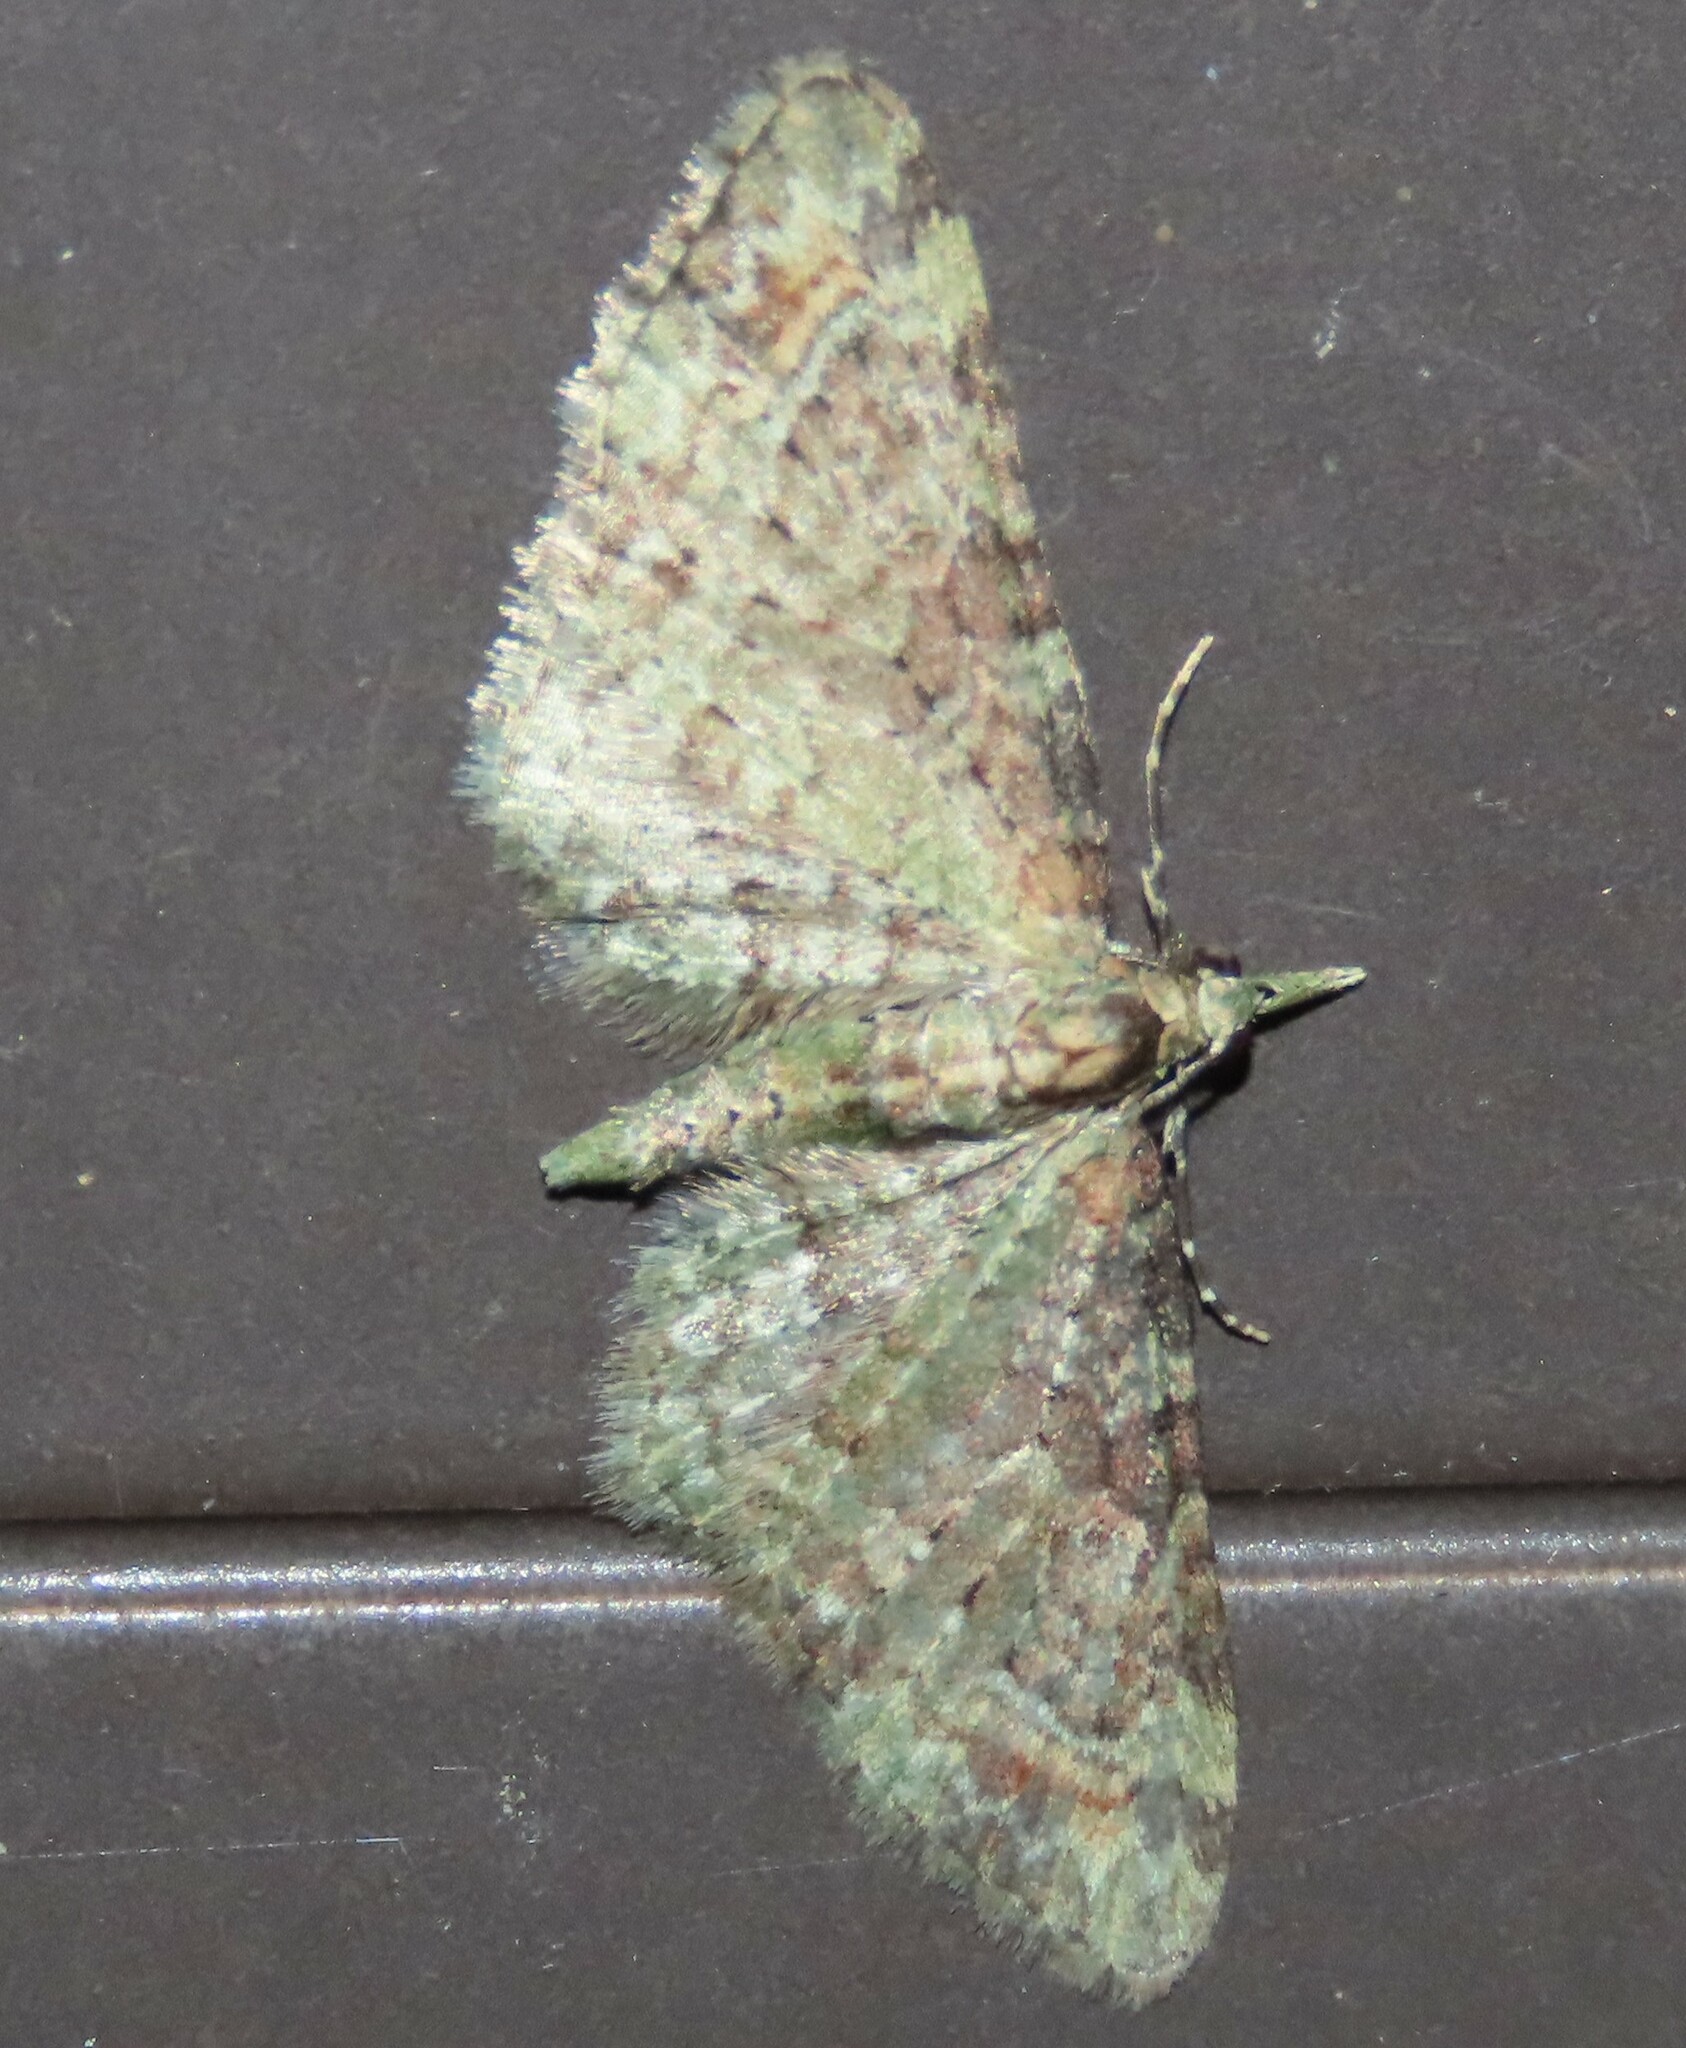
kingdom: Animalia
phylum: Arthropoda
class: Insecta
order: Lepidoptera
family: Geometridae
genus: Pasiphila
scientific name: Pasiphila plinthina
